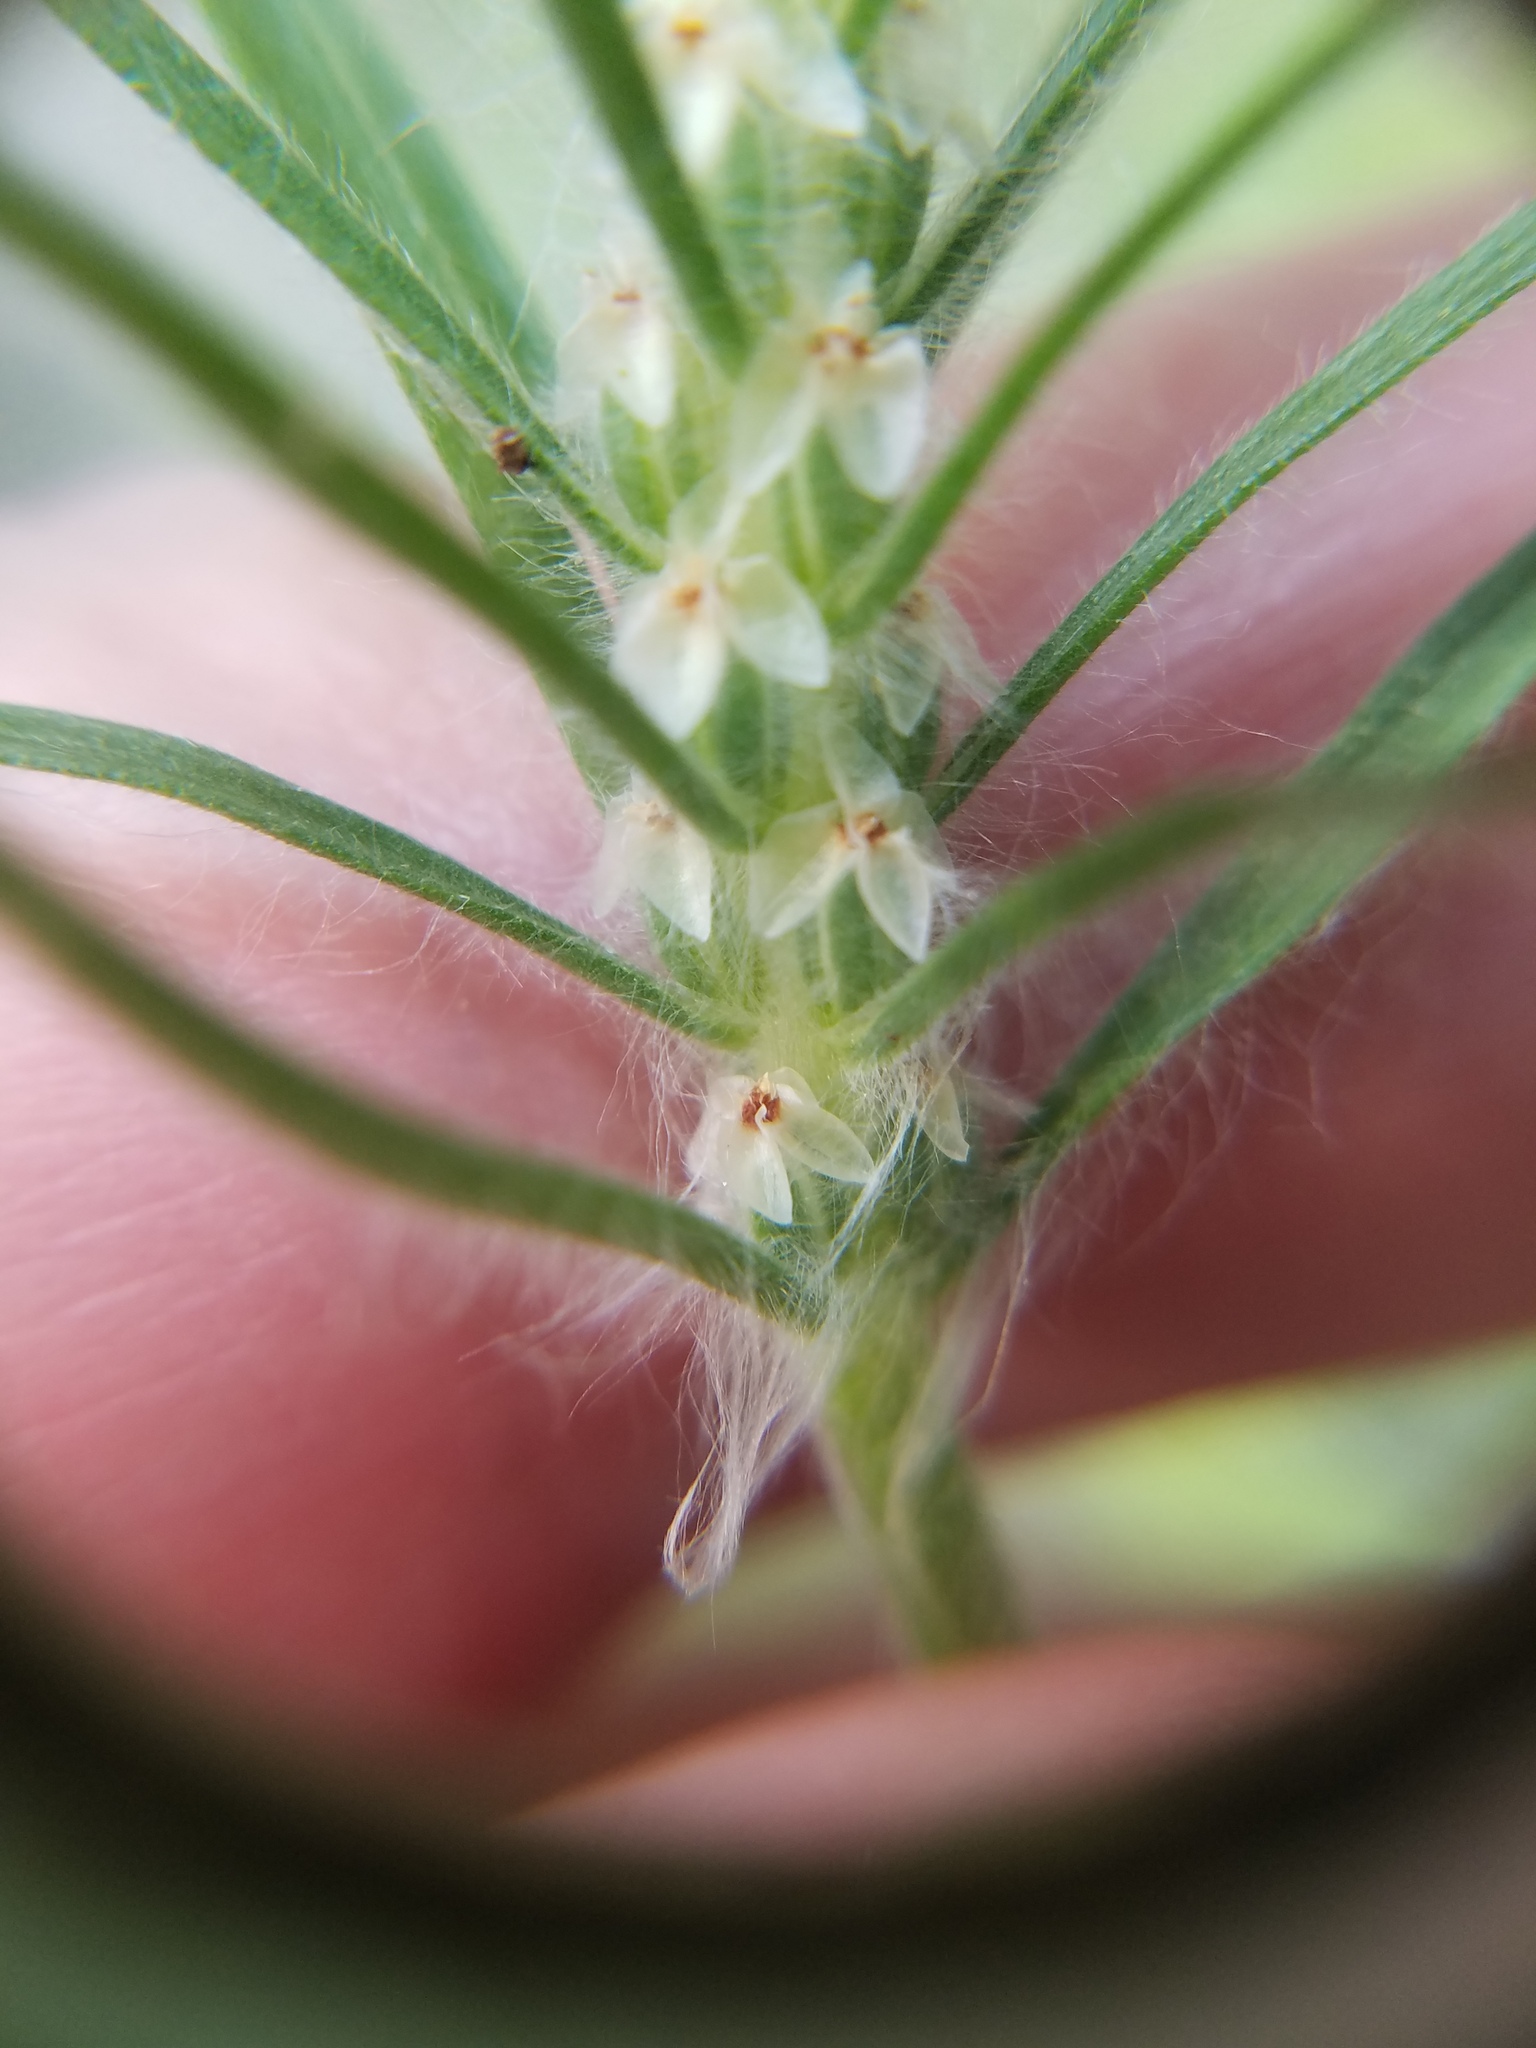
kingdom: Plantae
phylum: Tracheophyta
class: Magnoliopsida
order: Lamiales
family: Plantaginaceae
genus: Plantago
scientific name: Plantago aristata
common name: Bracted plantain
